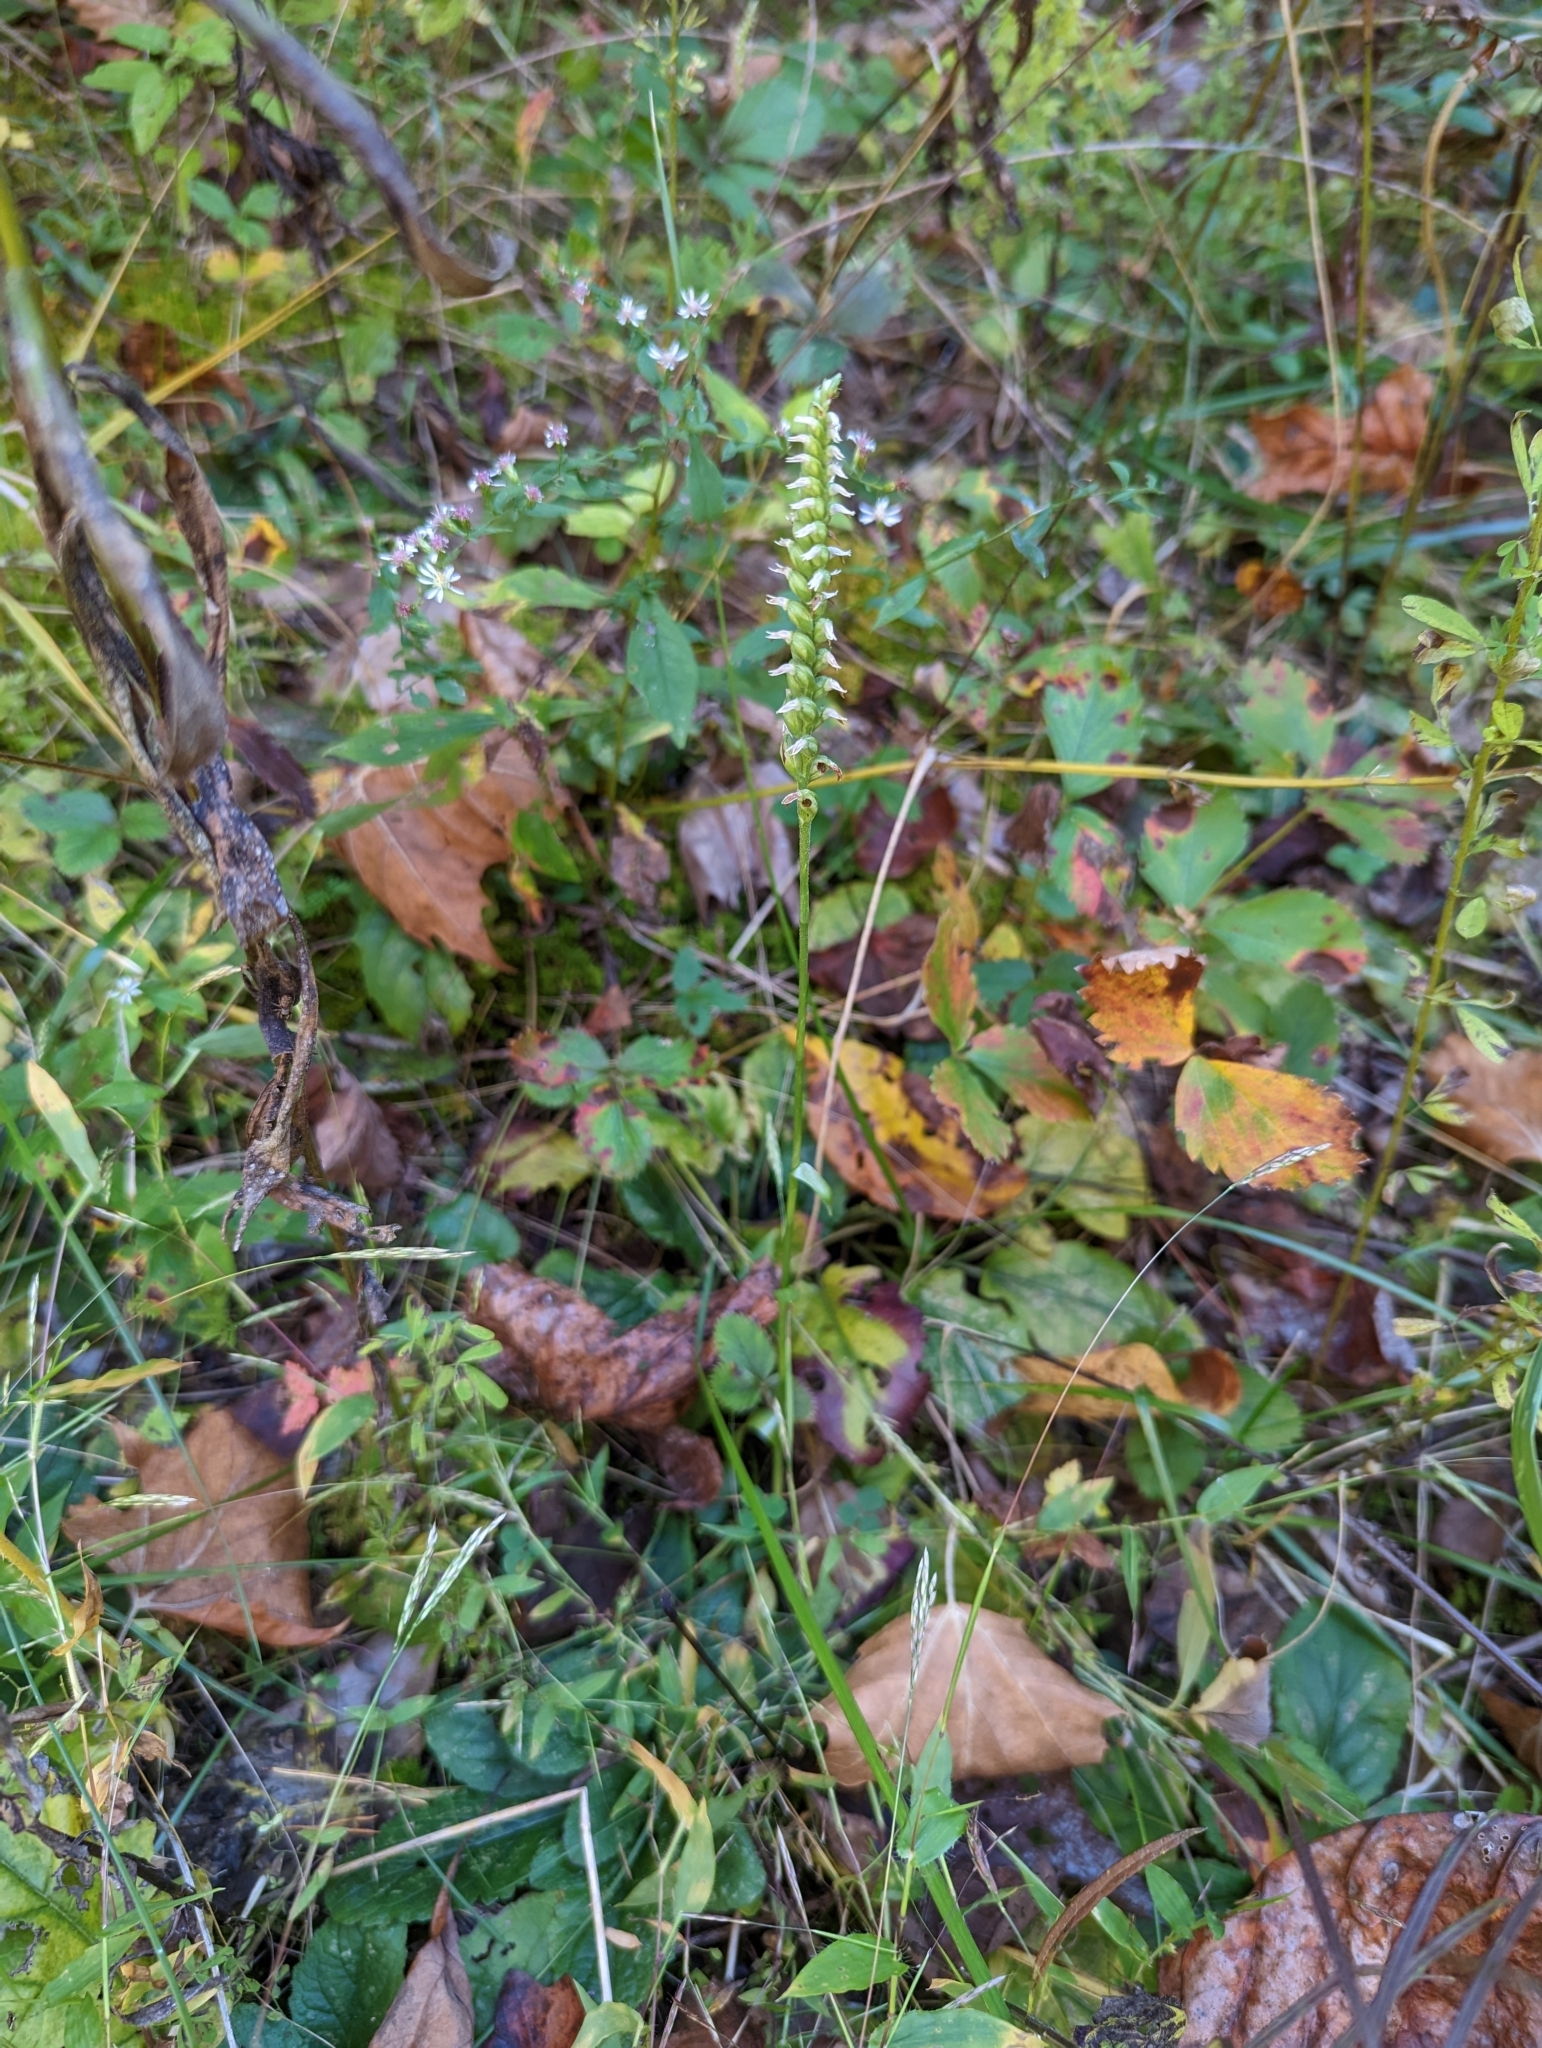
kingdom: Plantae
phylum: Tracheophyta
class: Liliopsida
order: Asparagales
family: Orchidaceae
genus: Spiranthes
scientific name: Spiranthes ovalis
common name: October ladies'-tresses
